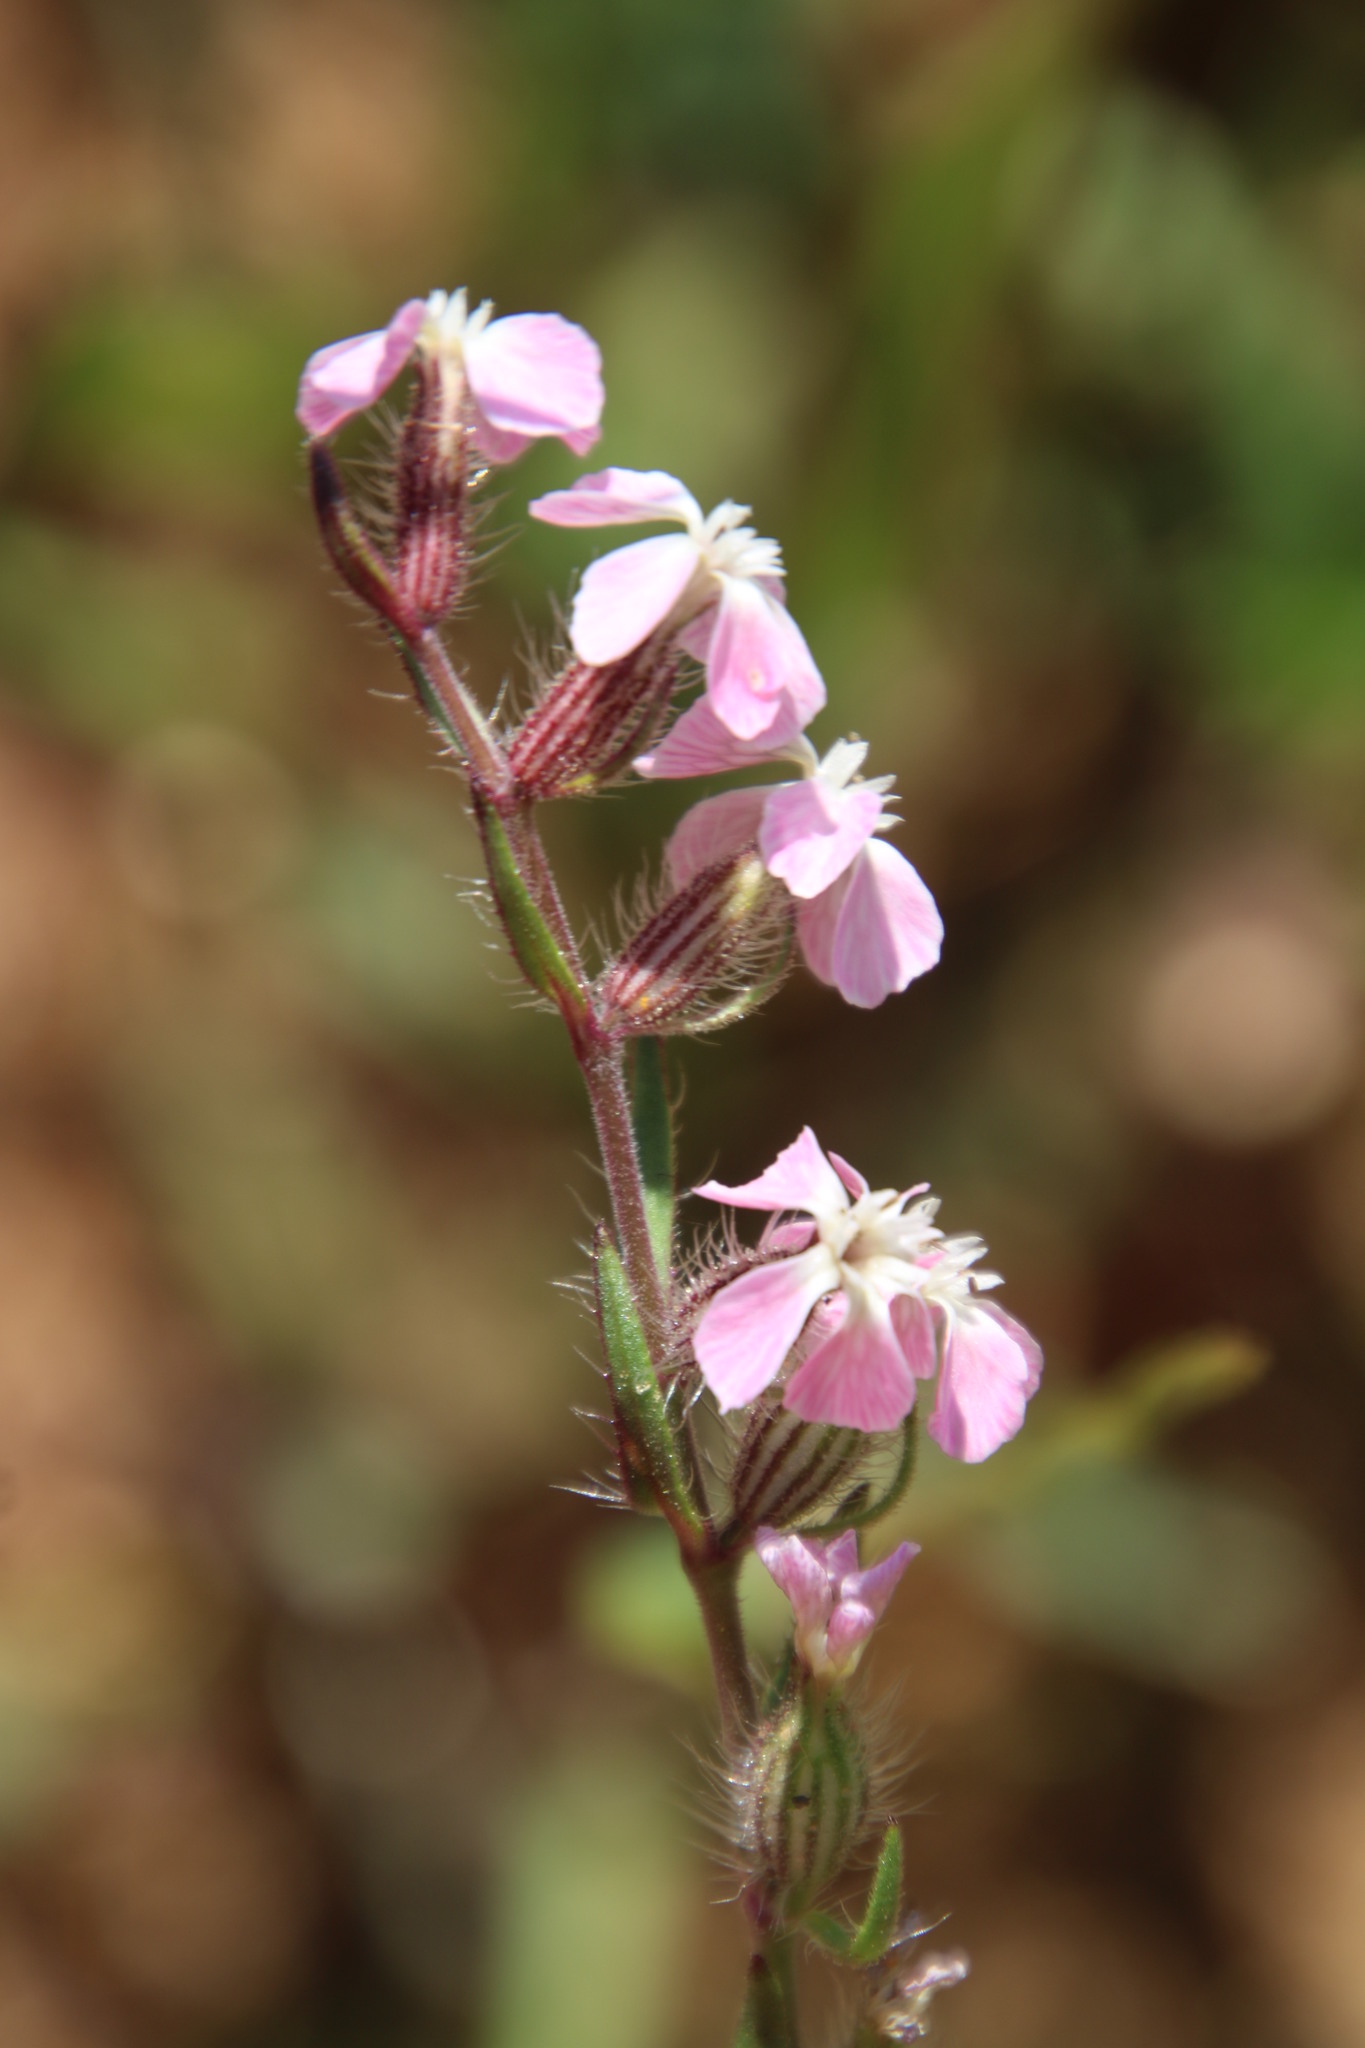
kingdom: Plantae
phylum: Tracheophyta
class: Magnoliopsida
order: Caryophyllales
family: Caryophyllaceae
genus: Silene
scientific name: Silene gallica
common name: Small-flowered catchfly
